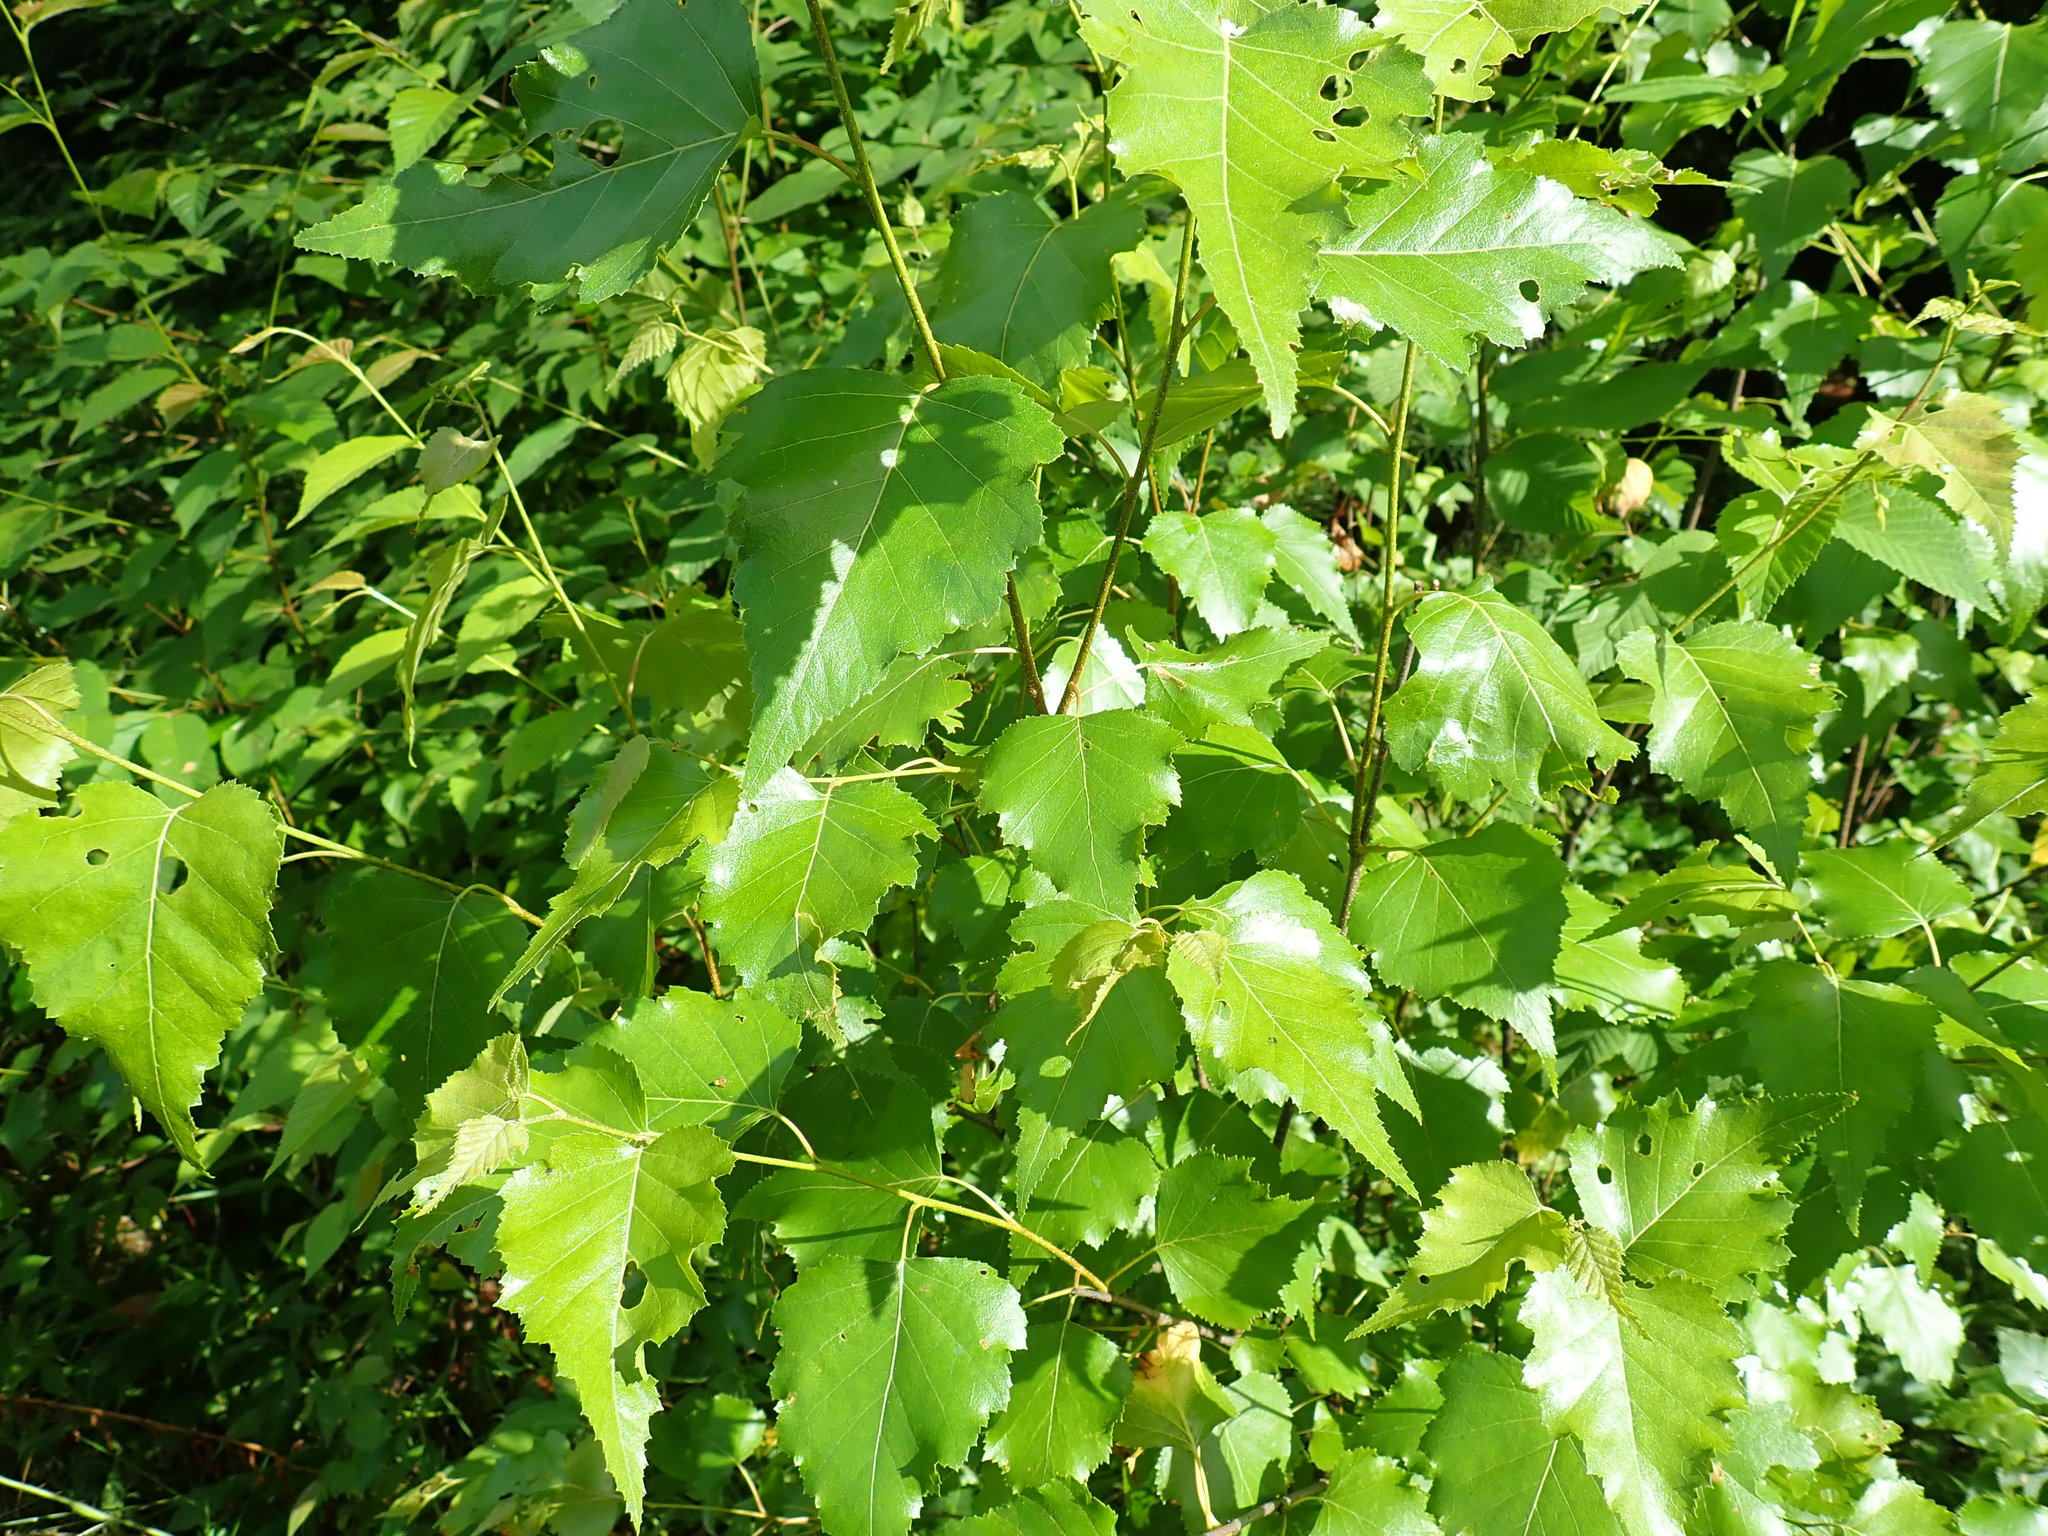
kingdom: Plantae
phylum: Tracheophyta
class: Magnoliopsida
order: Fagales
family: Betulaceae
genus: Betula
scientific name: Betula populifolia
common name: Fire birch
